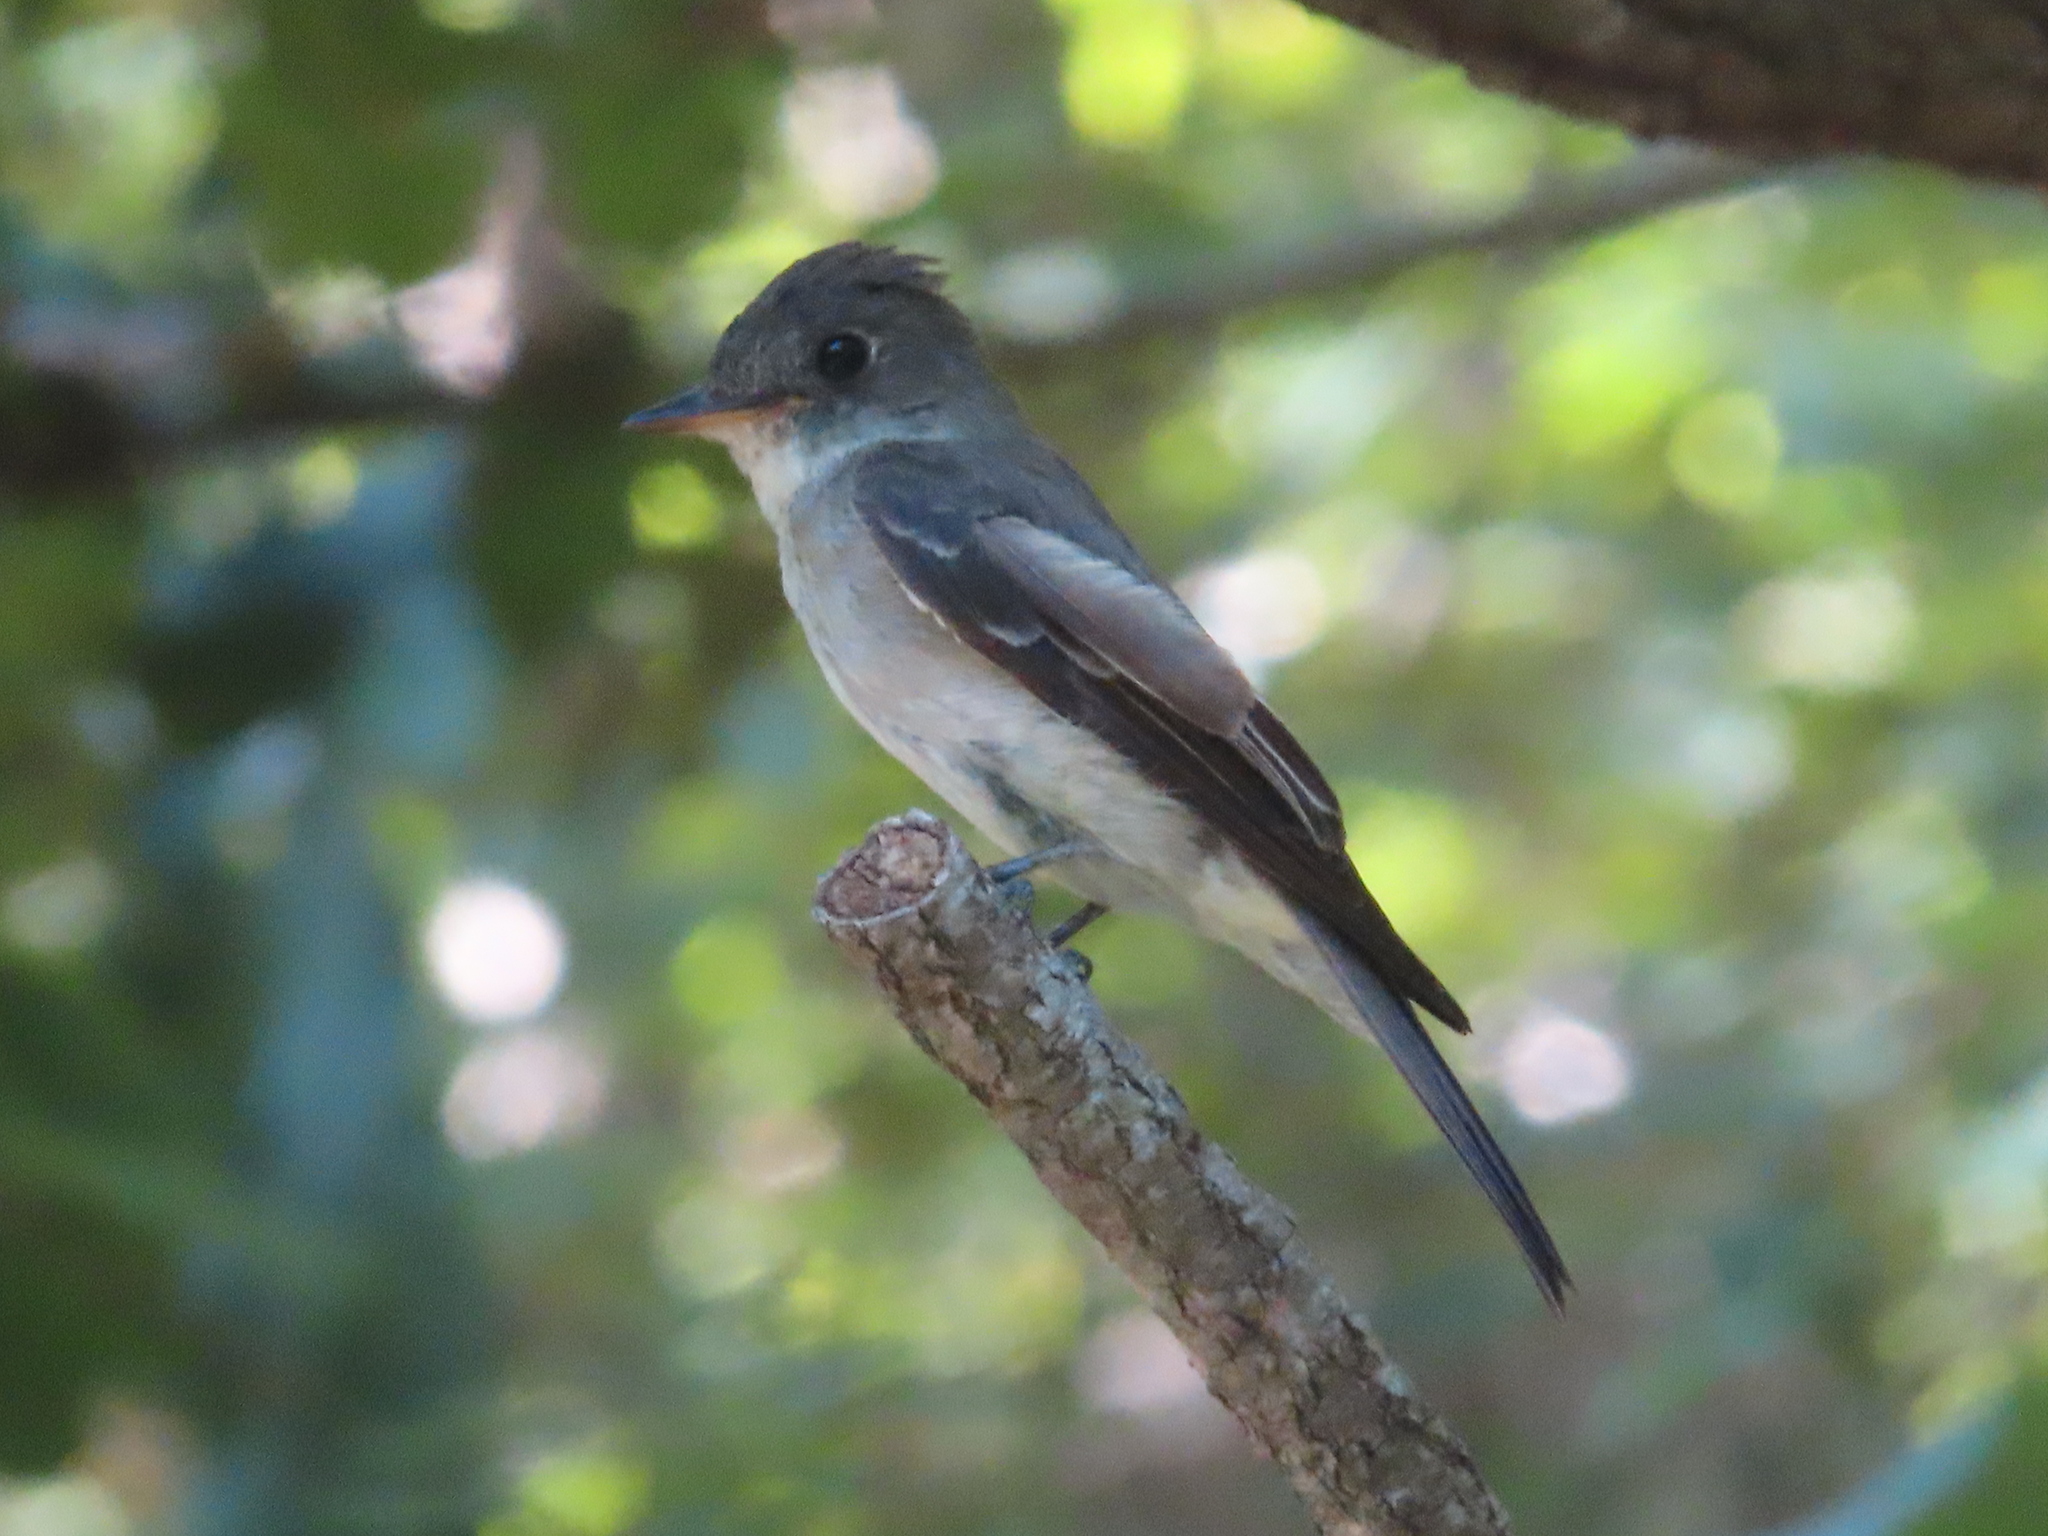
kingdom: Animalia
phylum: Chordata
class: Aves
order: Passeriformes
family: Tyrannidae
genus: Contopus
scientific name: Contopus virens
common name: Eastern wood-pewee
